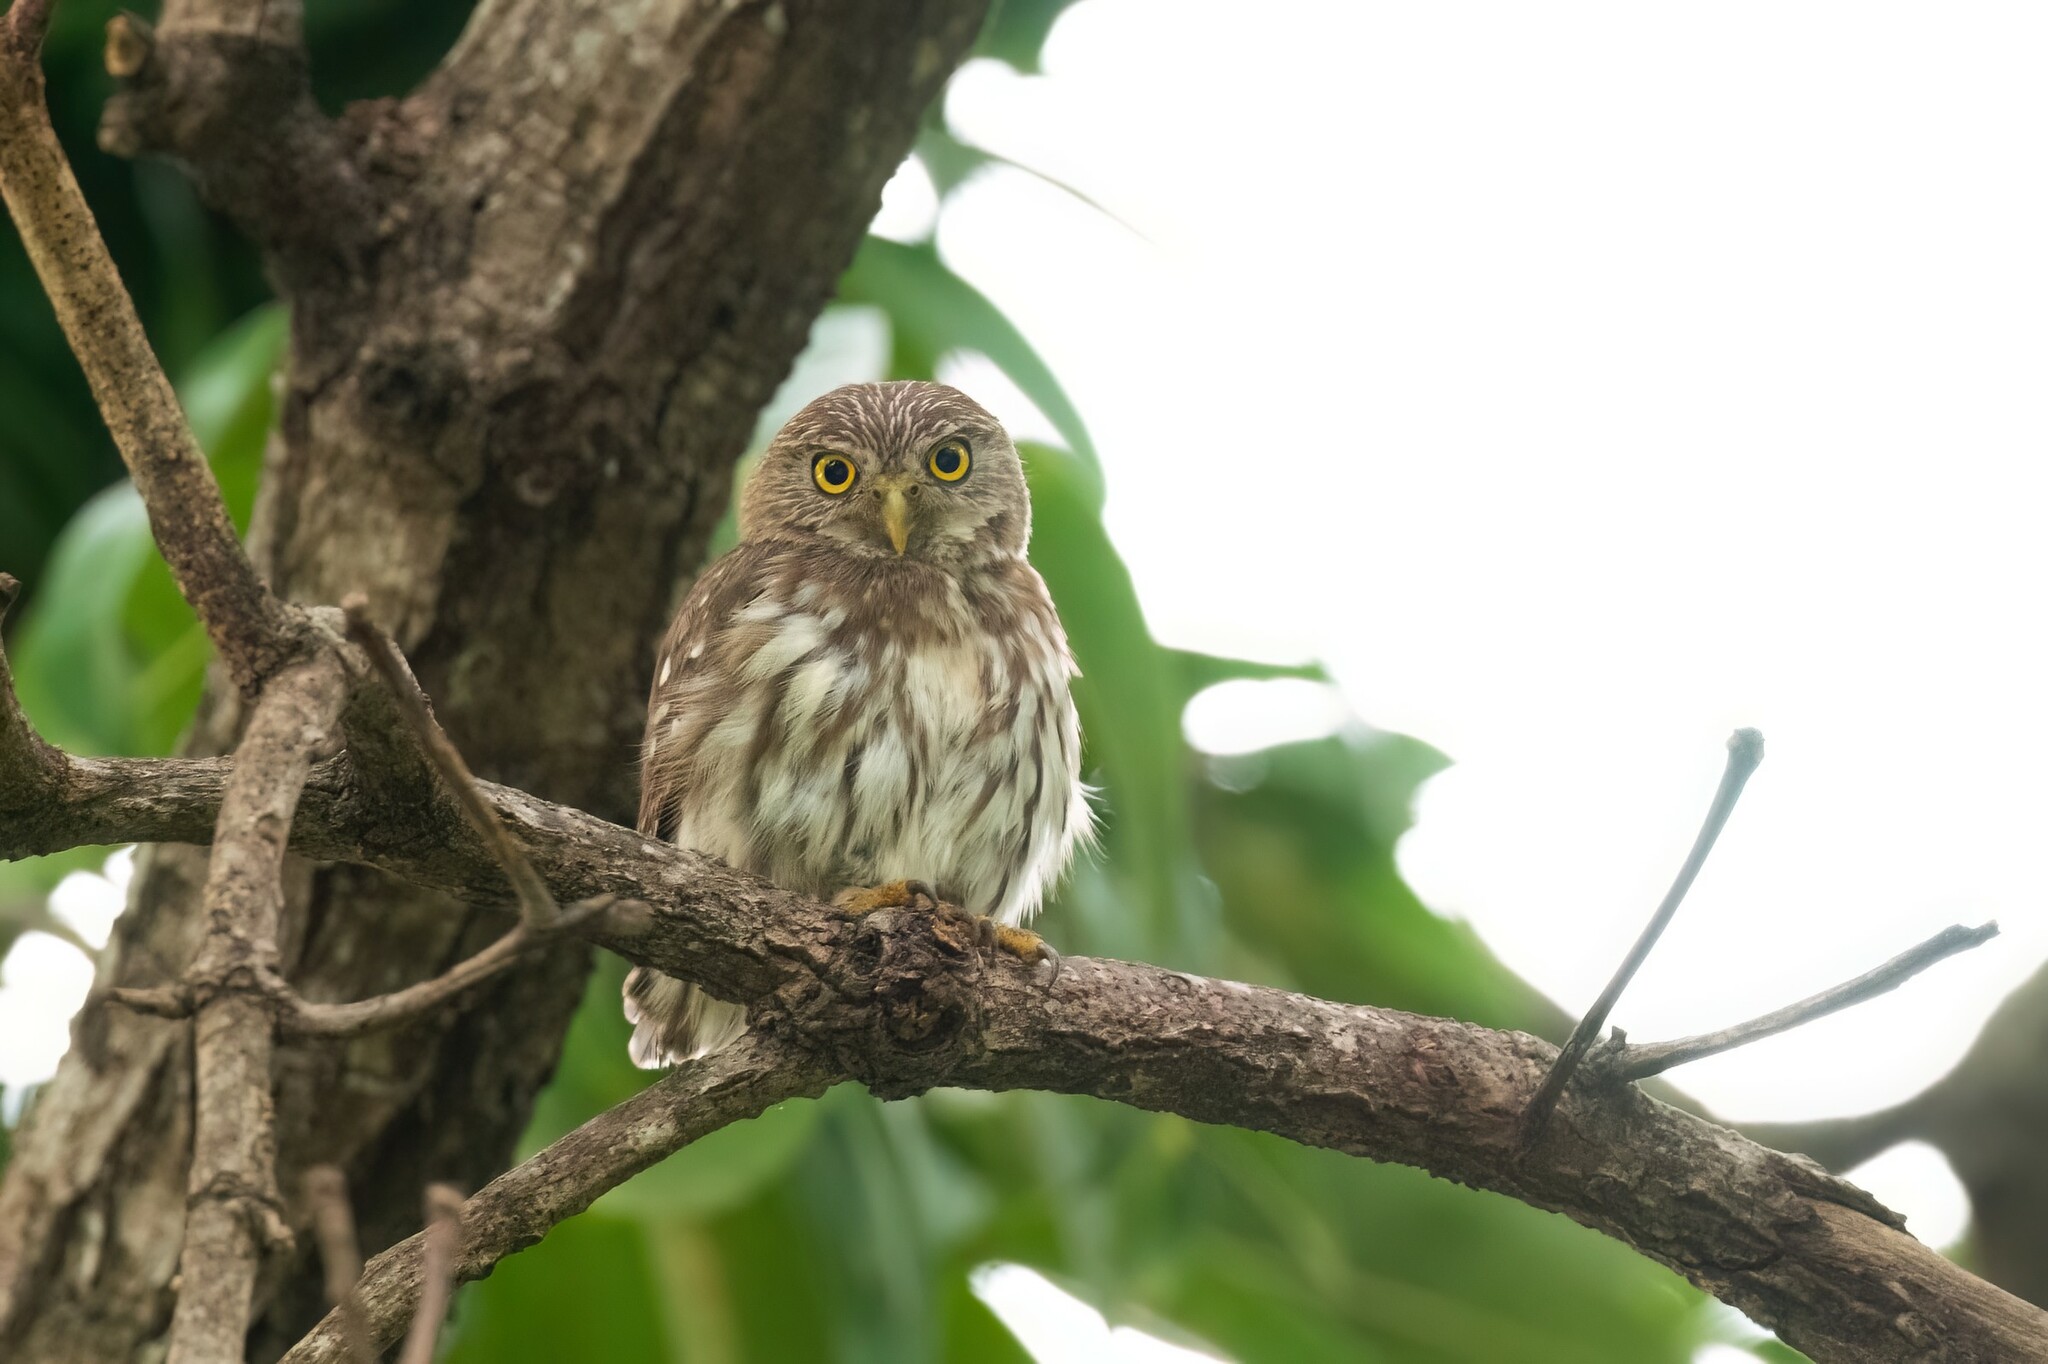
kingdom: Animalia
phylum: Chordata
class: Aves
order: Strigiformes
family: Strigidae
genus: Glaucidium
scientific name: Glaucidium brasilianum
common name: Ferruginous pygmy-owl
